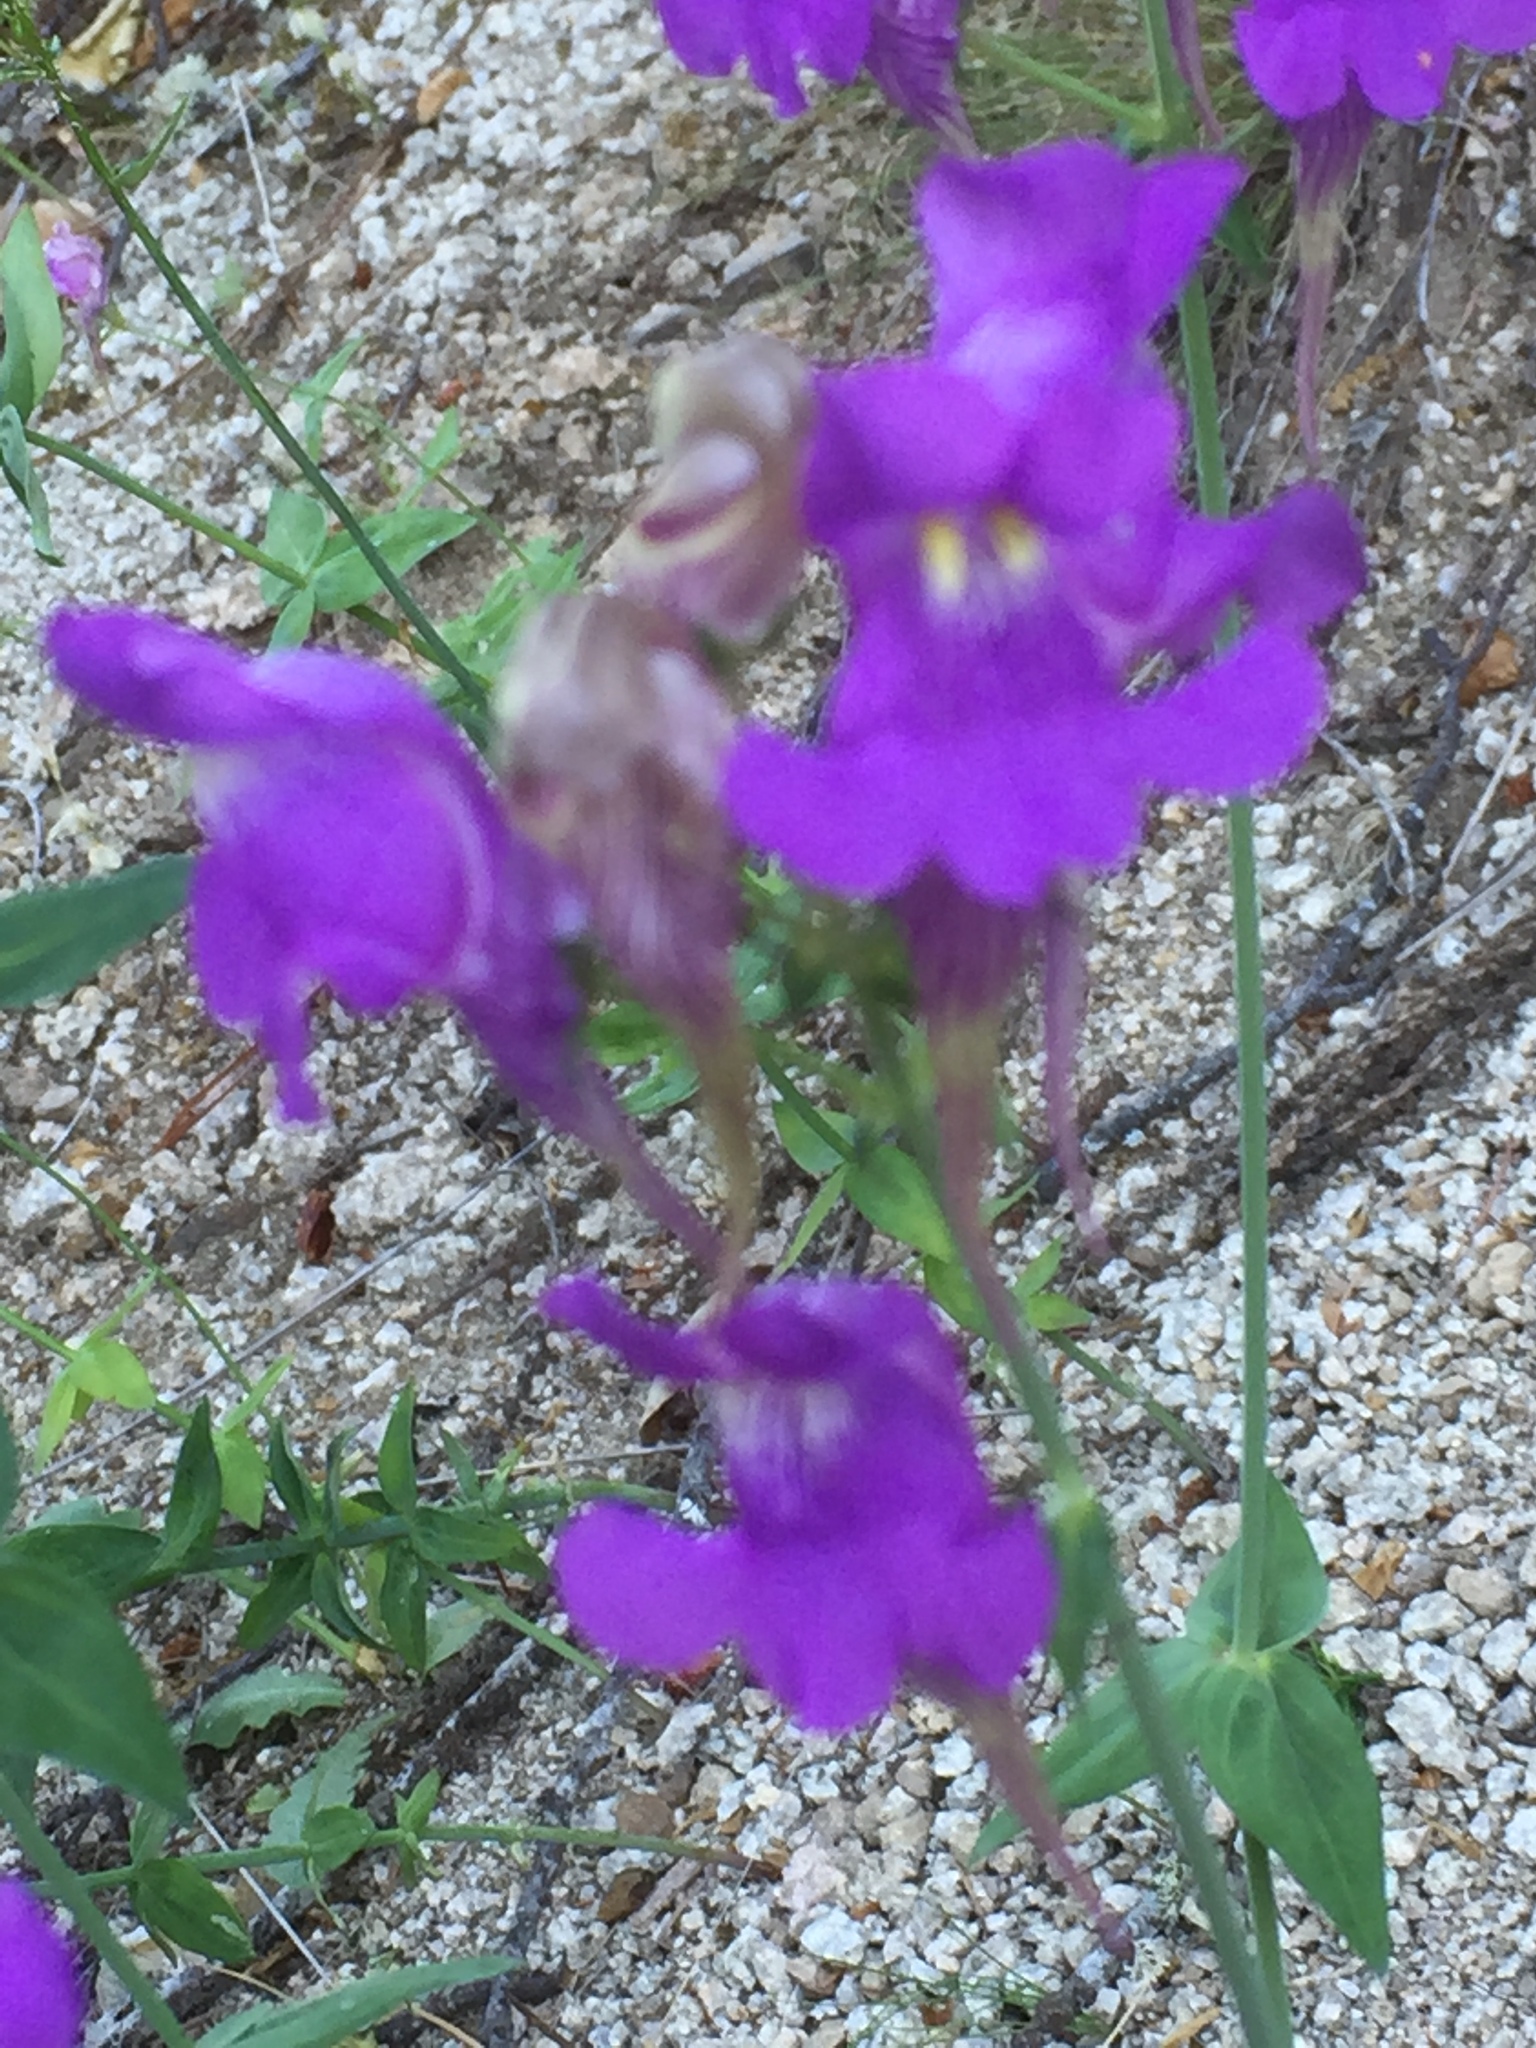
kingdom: Plantae
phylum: Tracheophyta
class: Magnoliopsida
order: Lamiales
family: Plantaginaceae
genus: Linaria
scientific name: Linaria triornithophora
